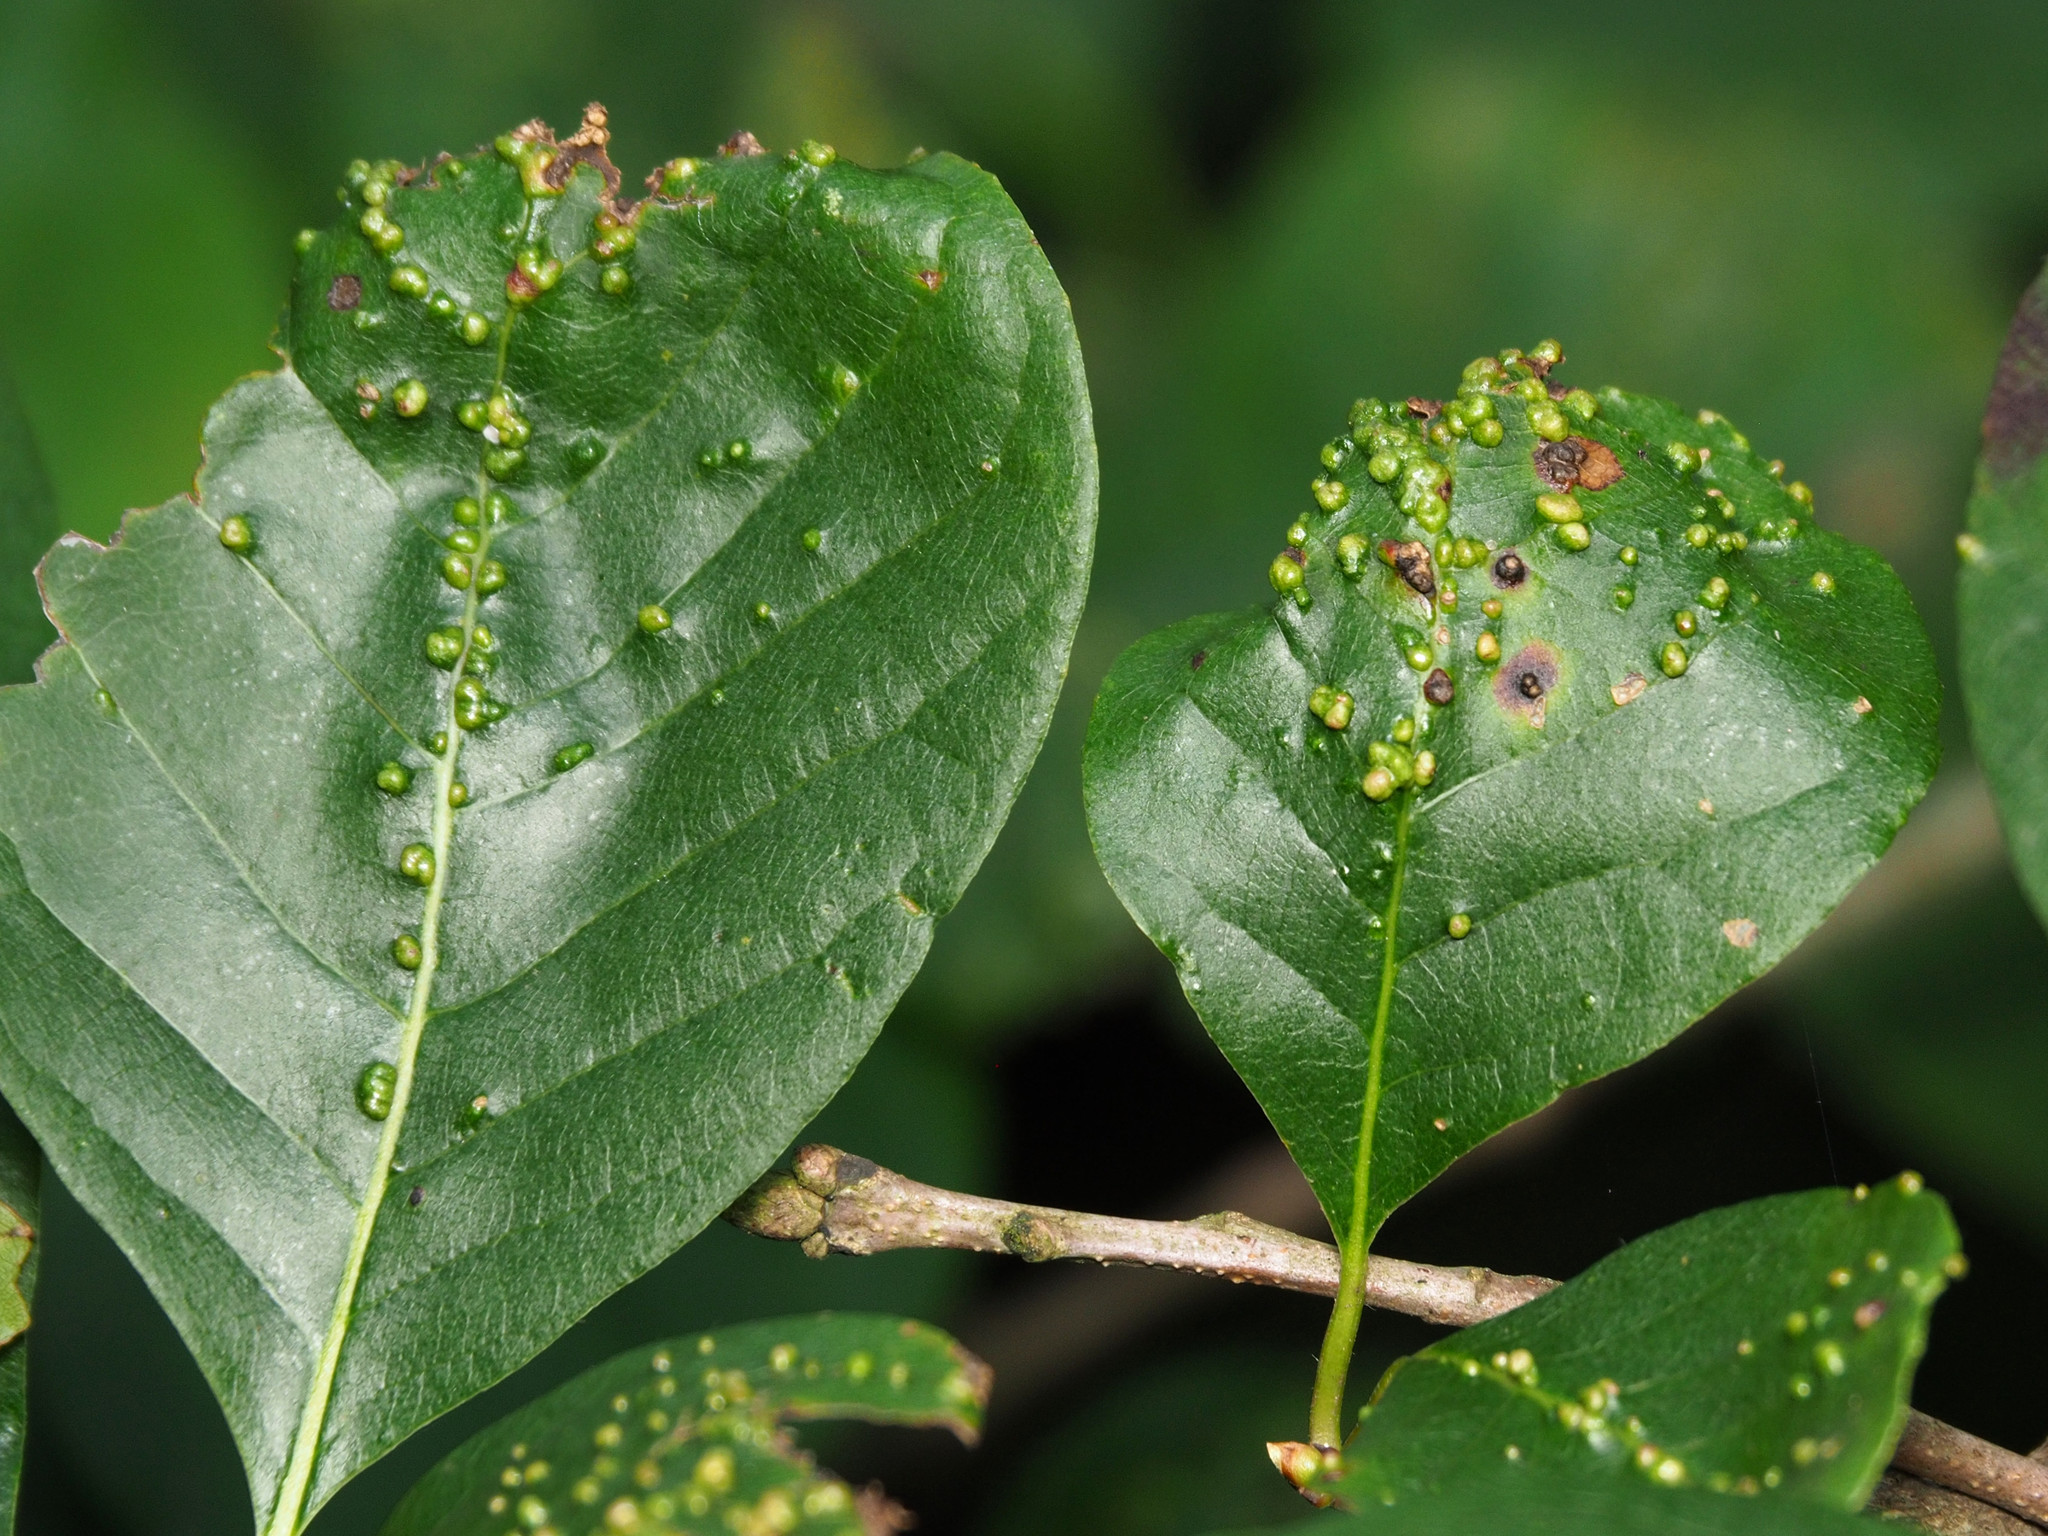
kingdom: Animalia
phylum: Arthropoda
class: Arachnida
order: Trombidiformes
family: Eriophyidae
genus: Aceria
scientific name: Aceria
